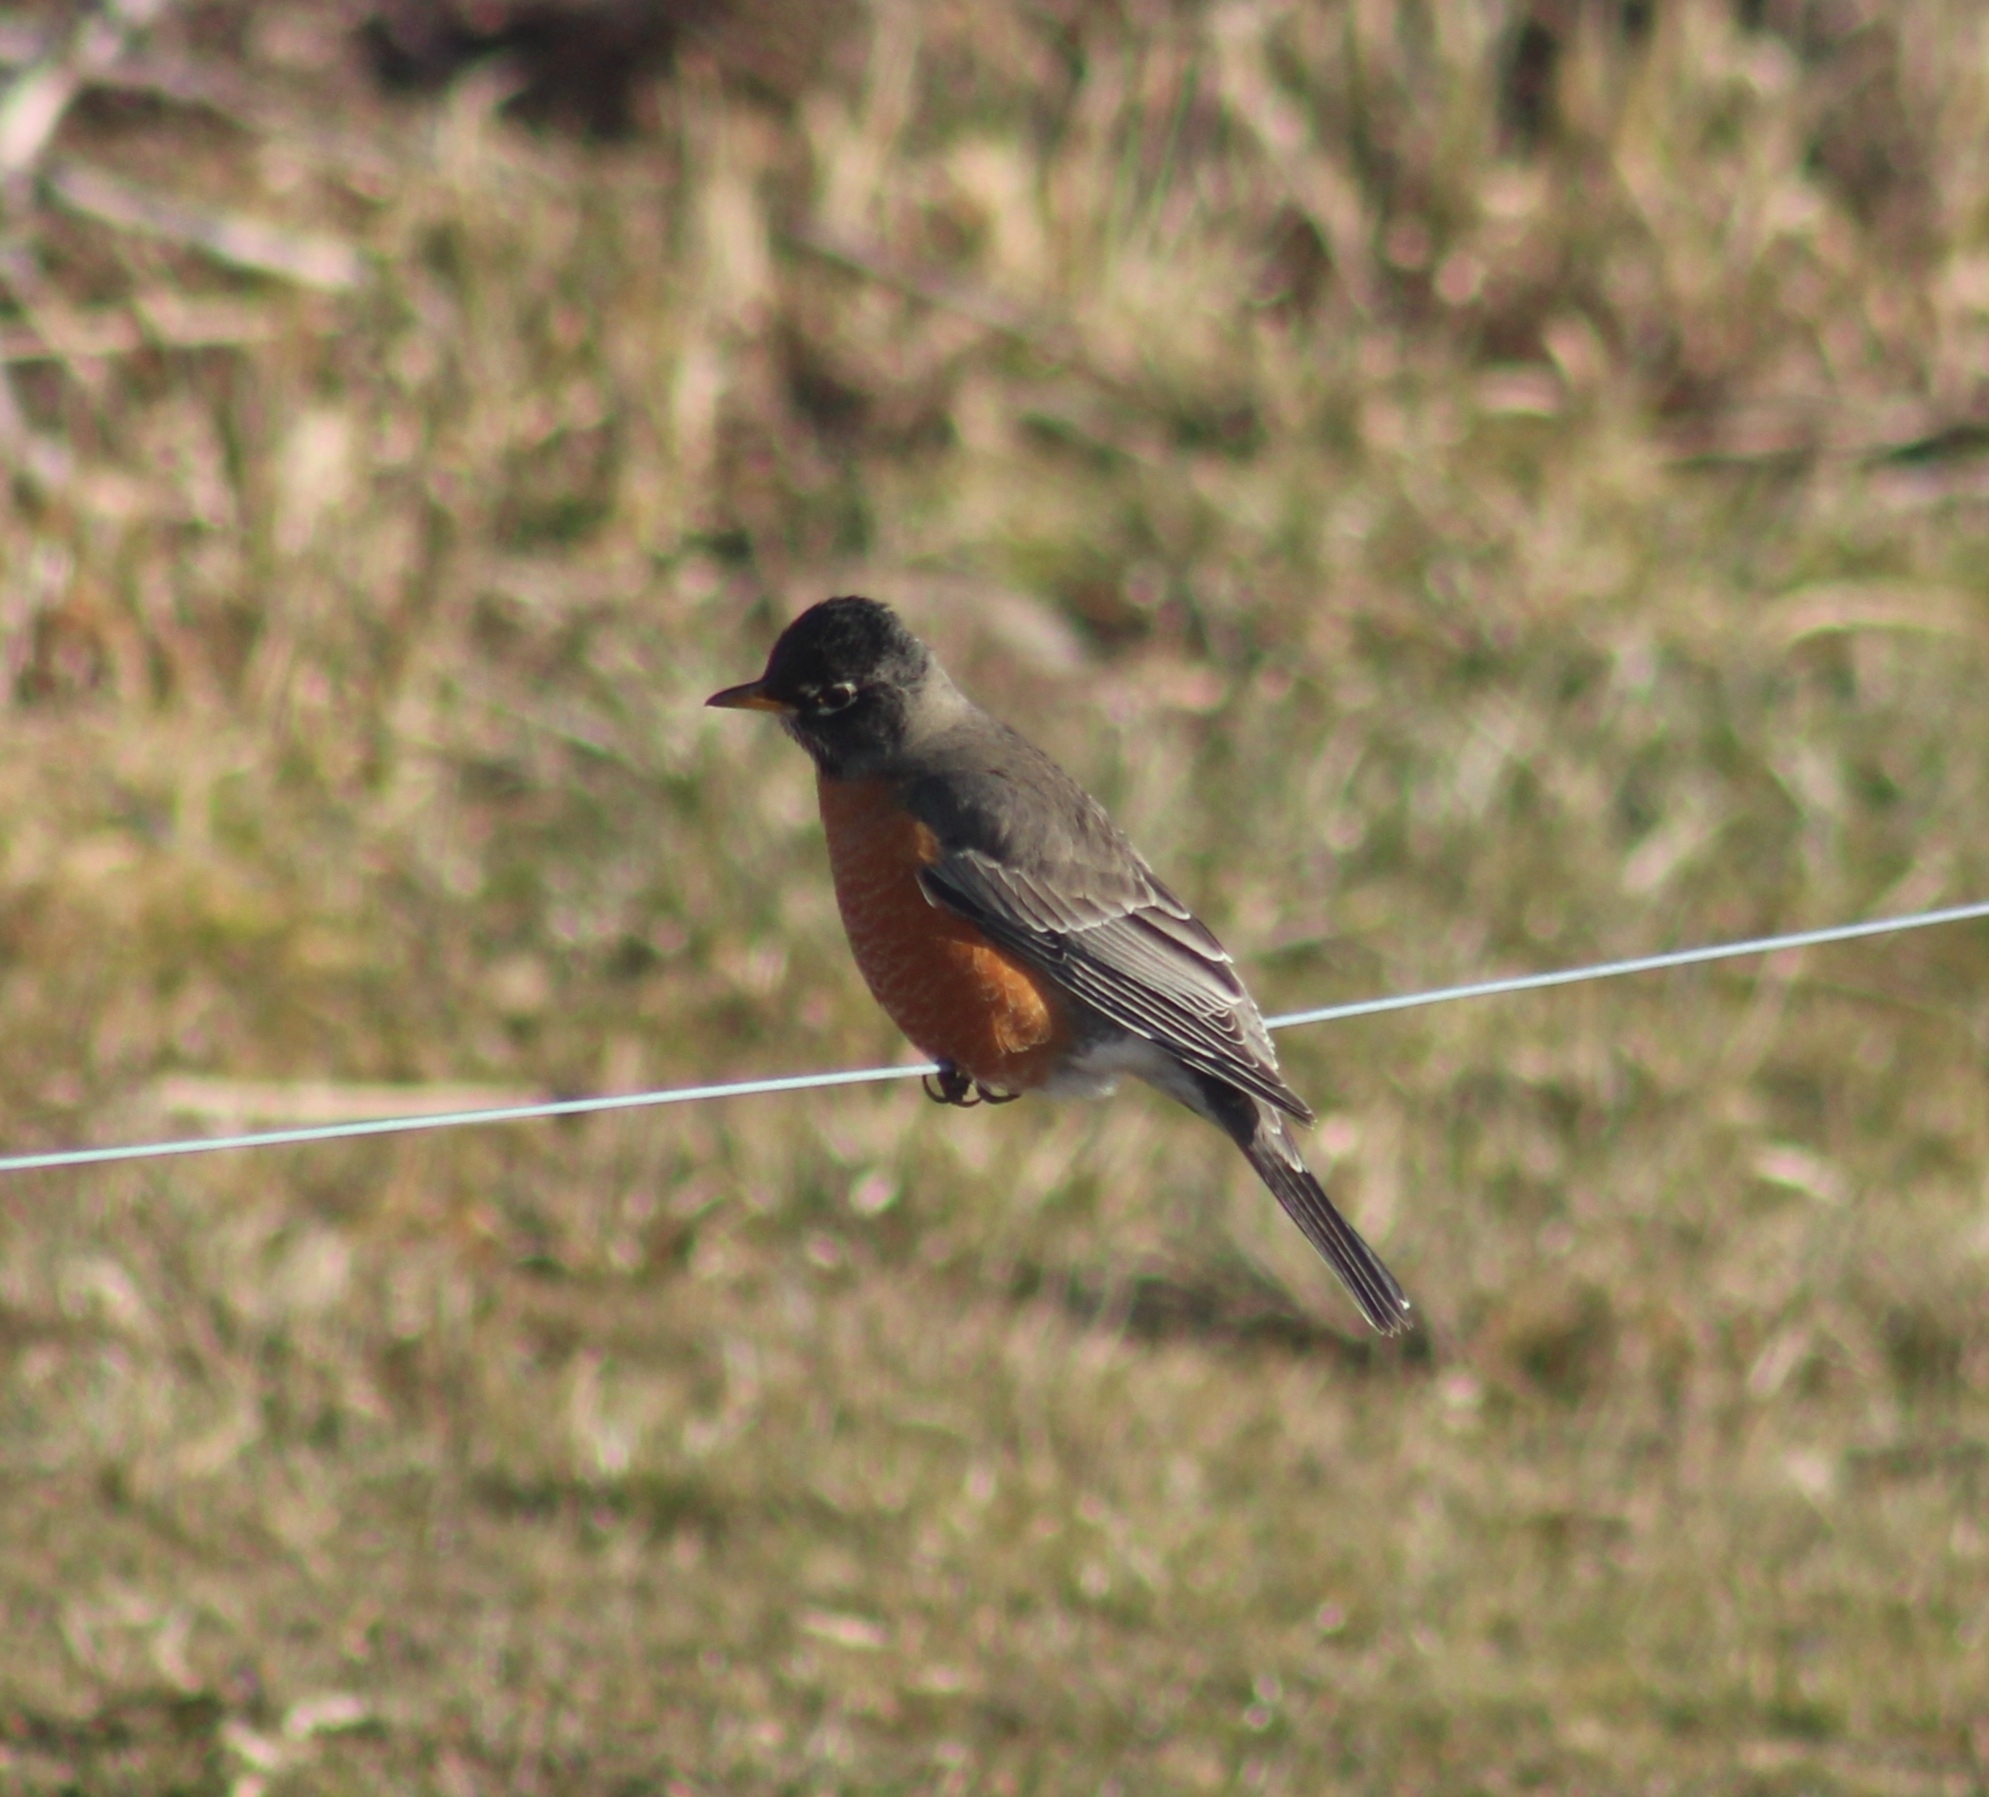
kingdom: Animalia
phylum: Chordata
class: Aves
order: Passeriformes
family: Turdidae
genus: Turdus
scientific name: Turdus migratorius
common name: American robin
